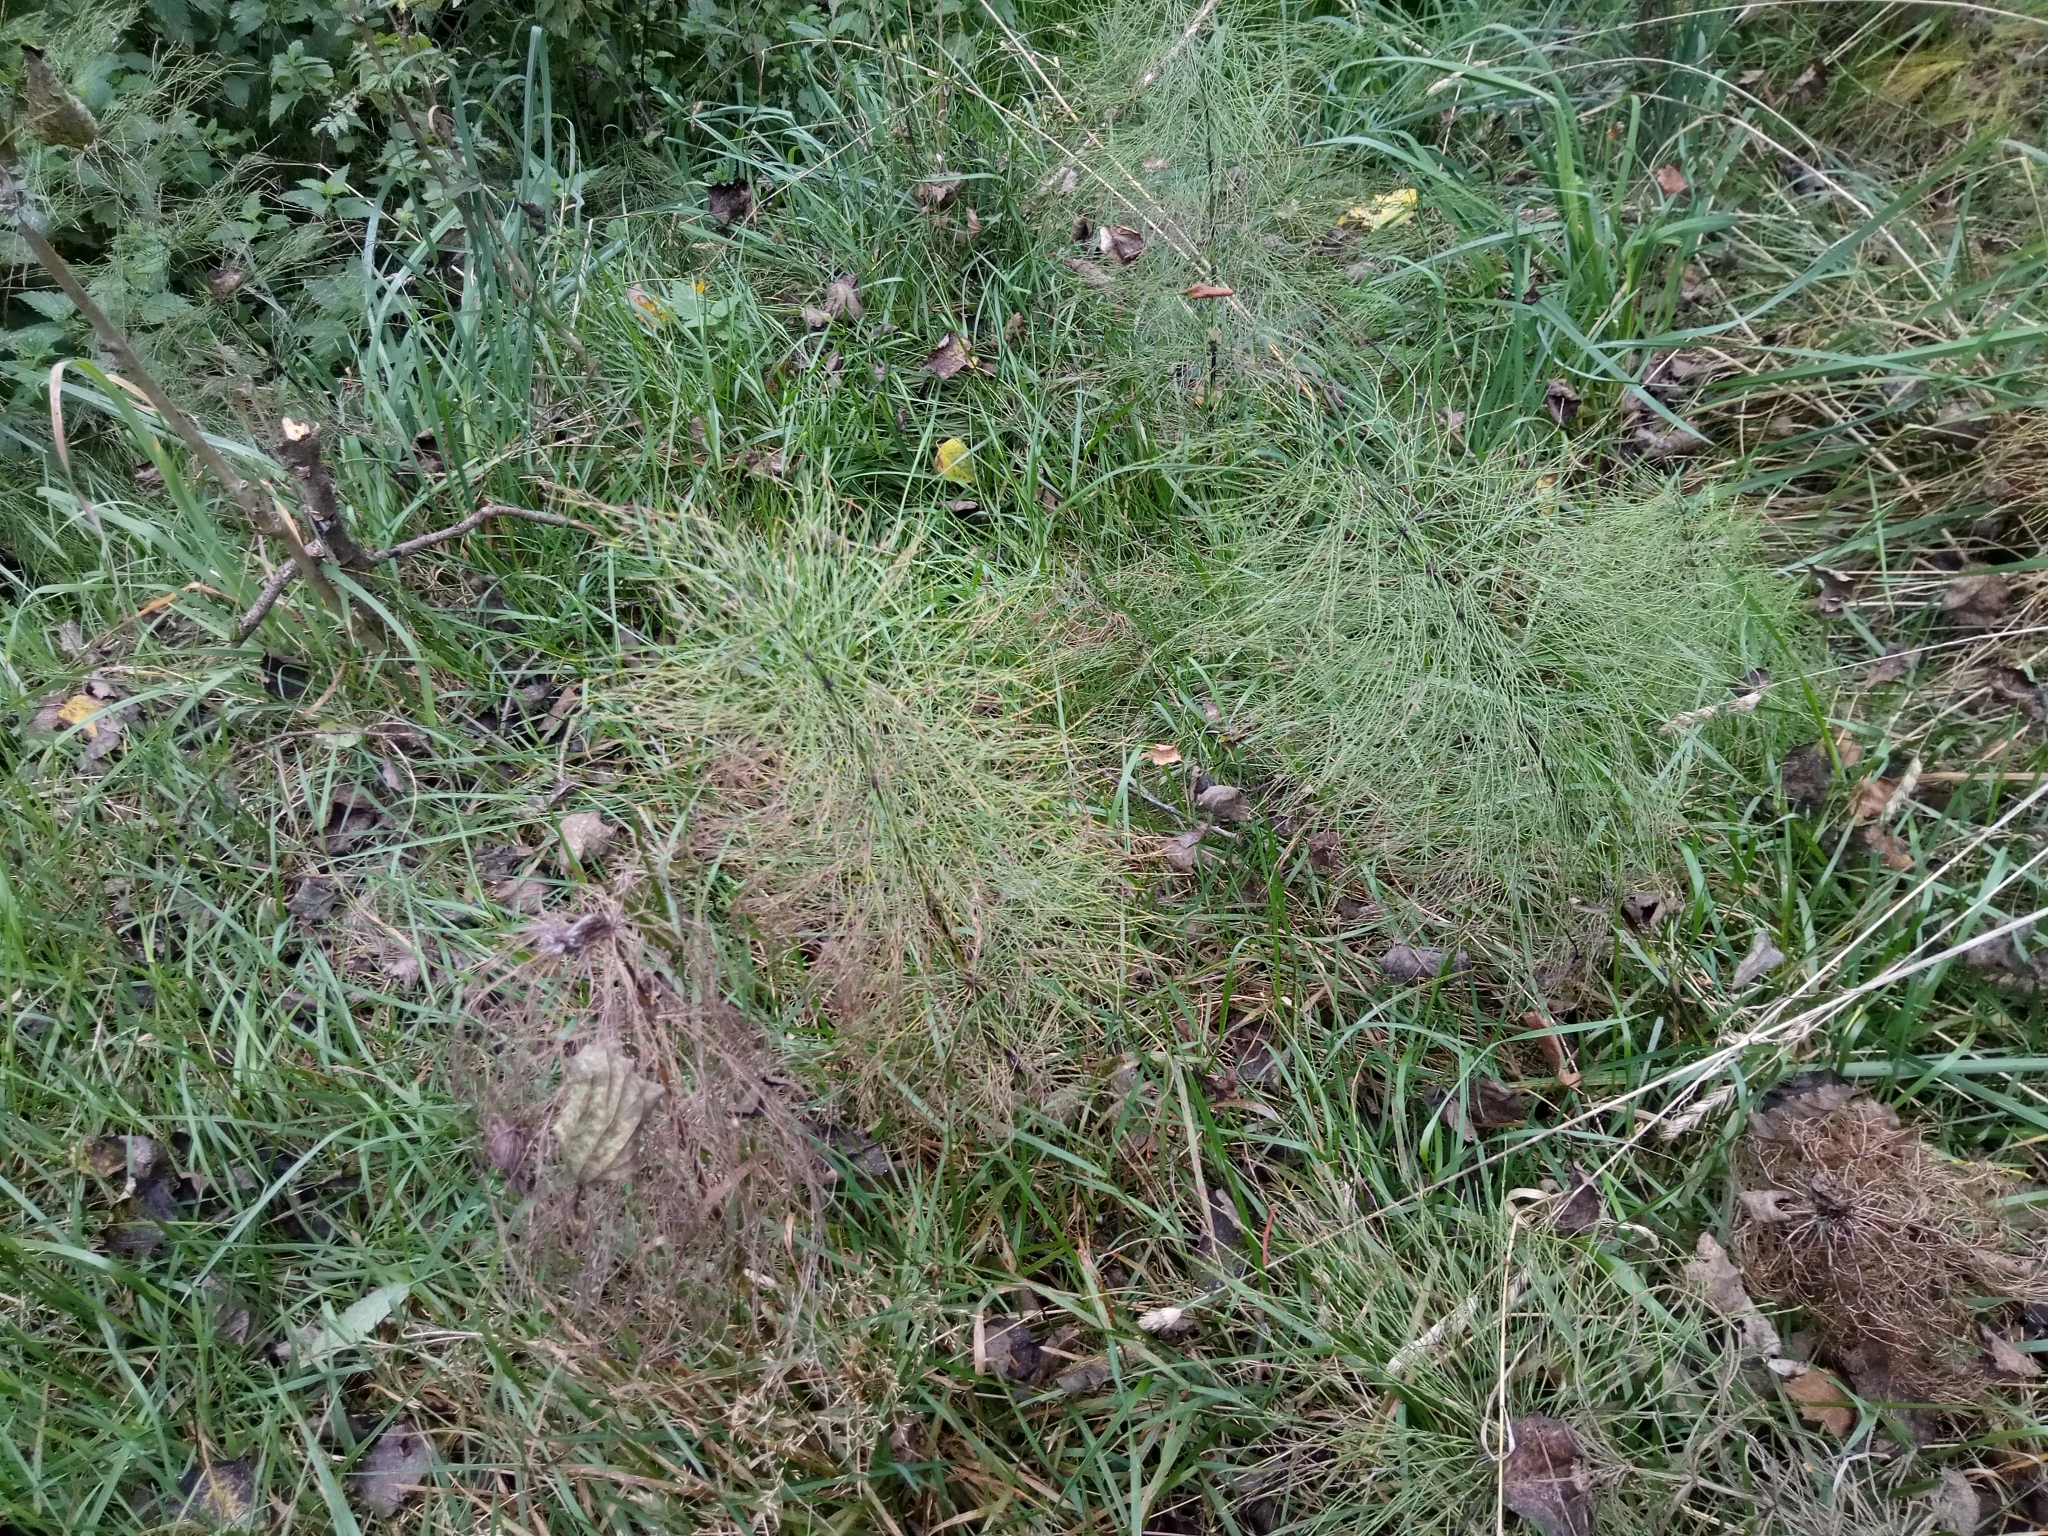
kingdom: Plantae
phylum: Tracheophyta
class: Polypodiopsida
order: Equisetales
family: Equisetaceae
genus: Equisetum
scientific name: Equisetum sylvaticum
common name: Wood horsetail
